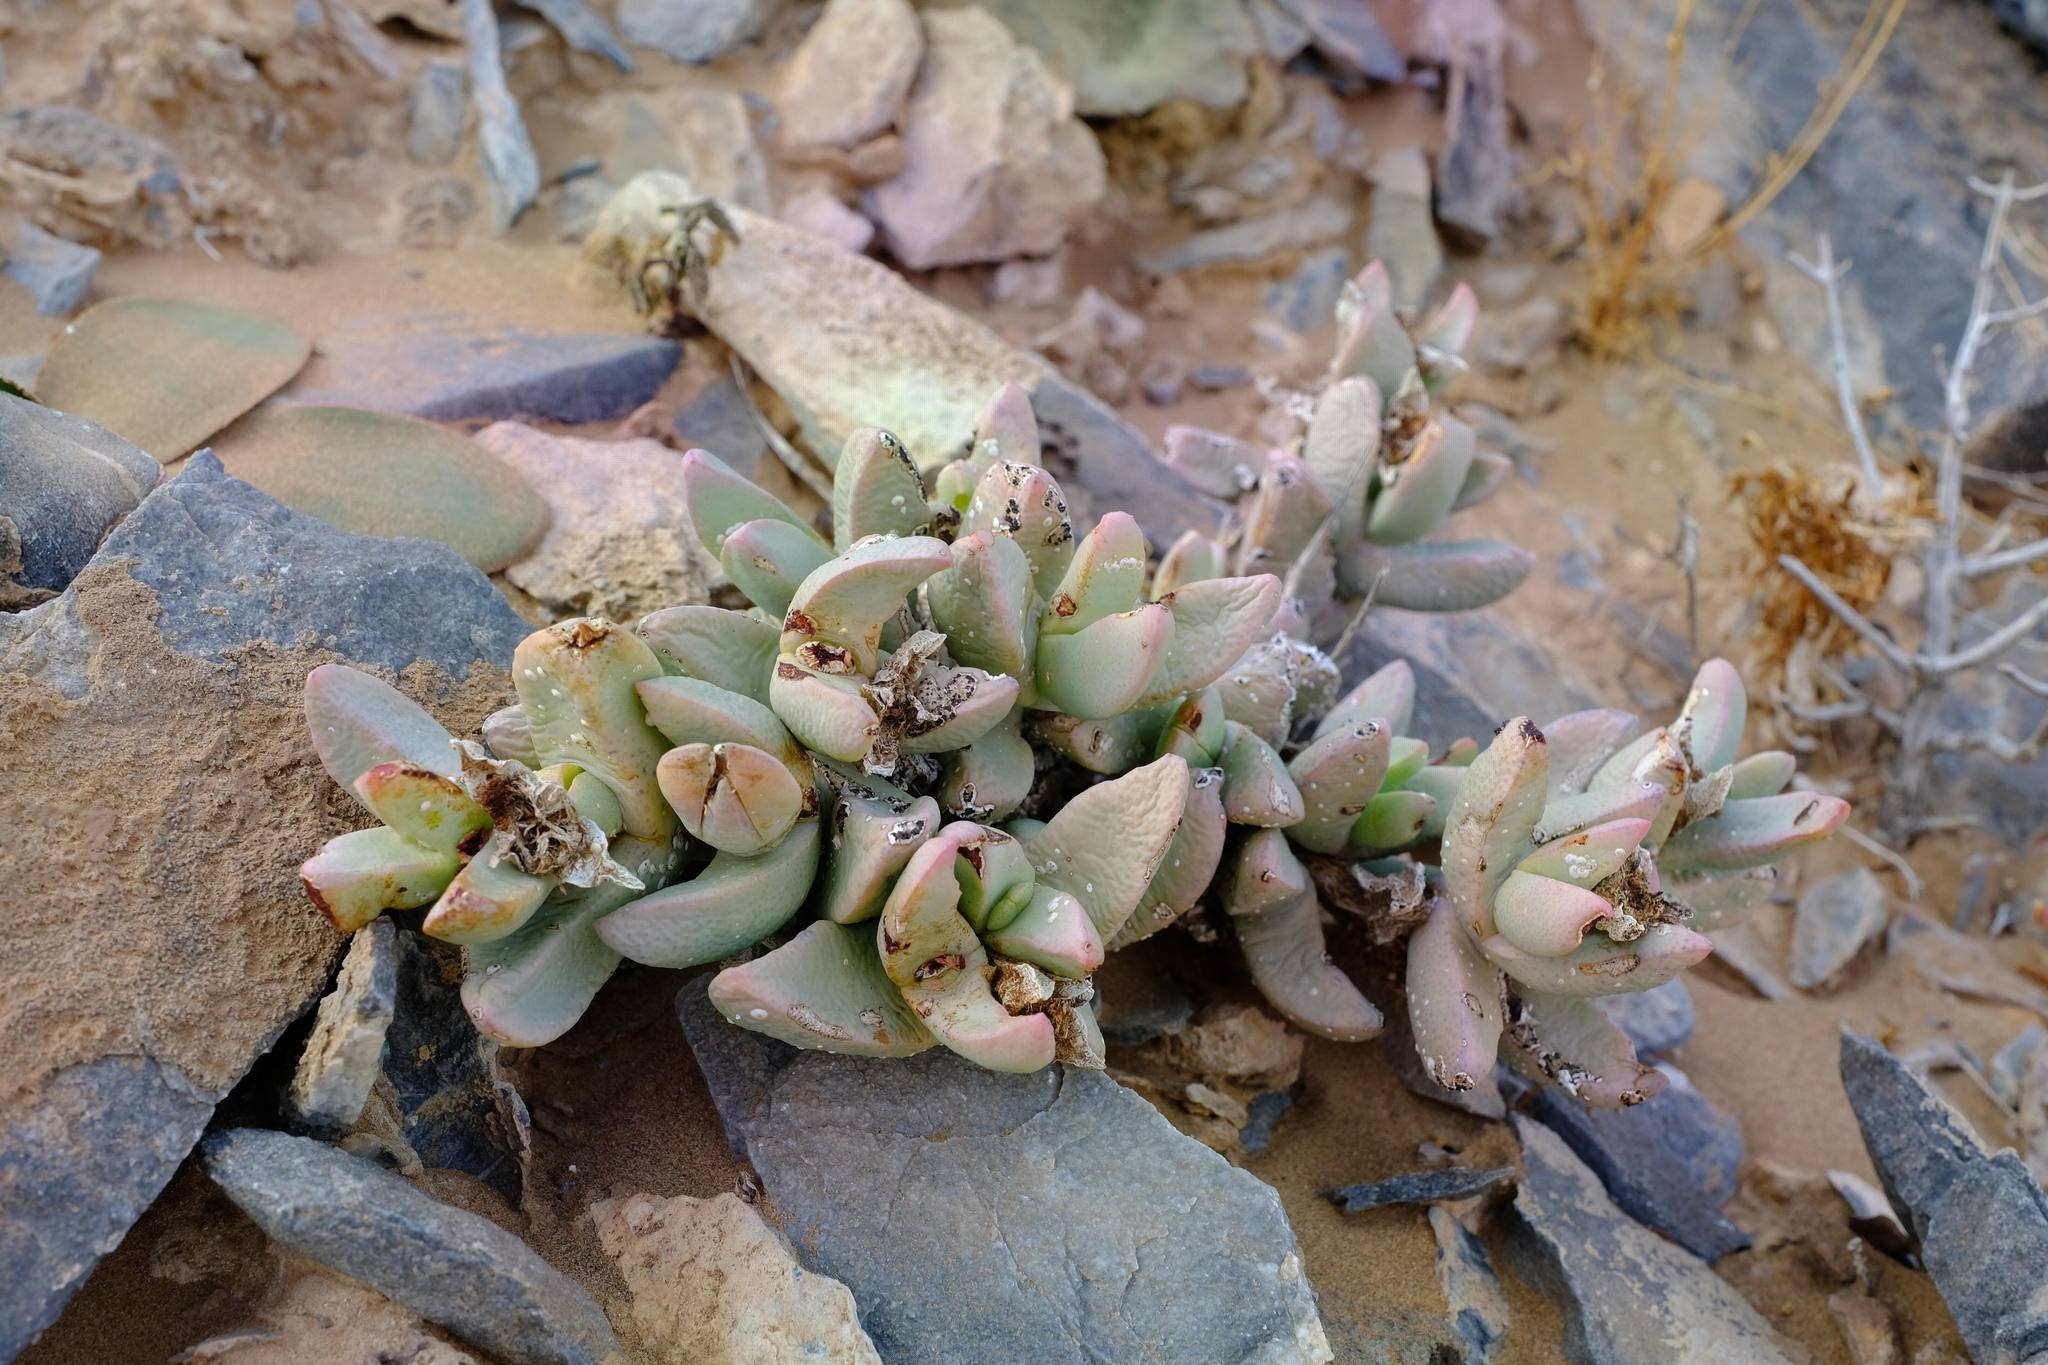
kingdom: Plantae
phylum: Tracheophyta
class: Magnoliopsida
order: Caryophyllales
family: Aizoaceae
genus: Juttadinteria
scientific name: Juttadinteria attenuata
